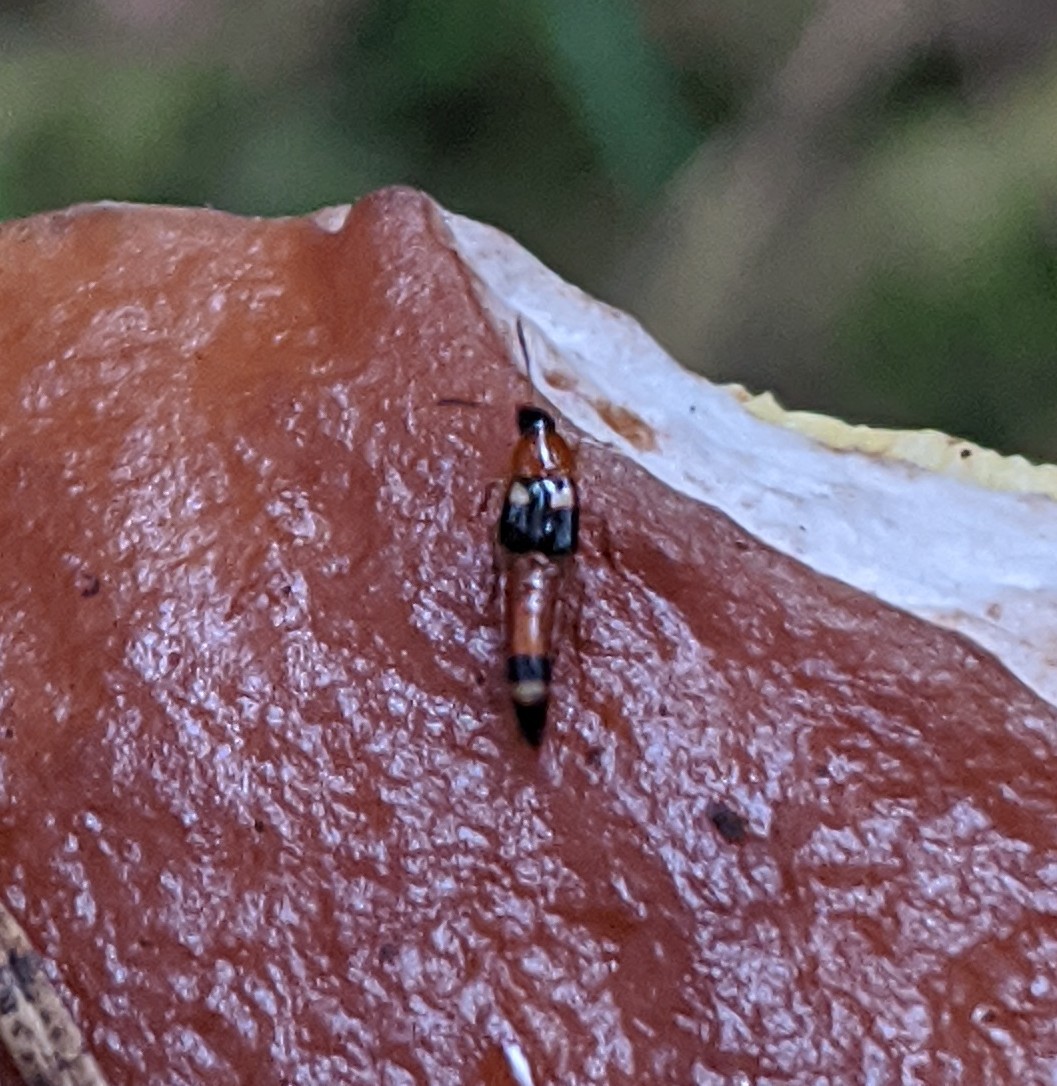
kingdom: Animalia
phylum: Arthropoda
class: Insecta
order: Coleoptera
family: Staphylinidae
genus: Bobitobus
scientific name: Bobitobus lunulatus
